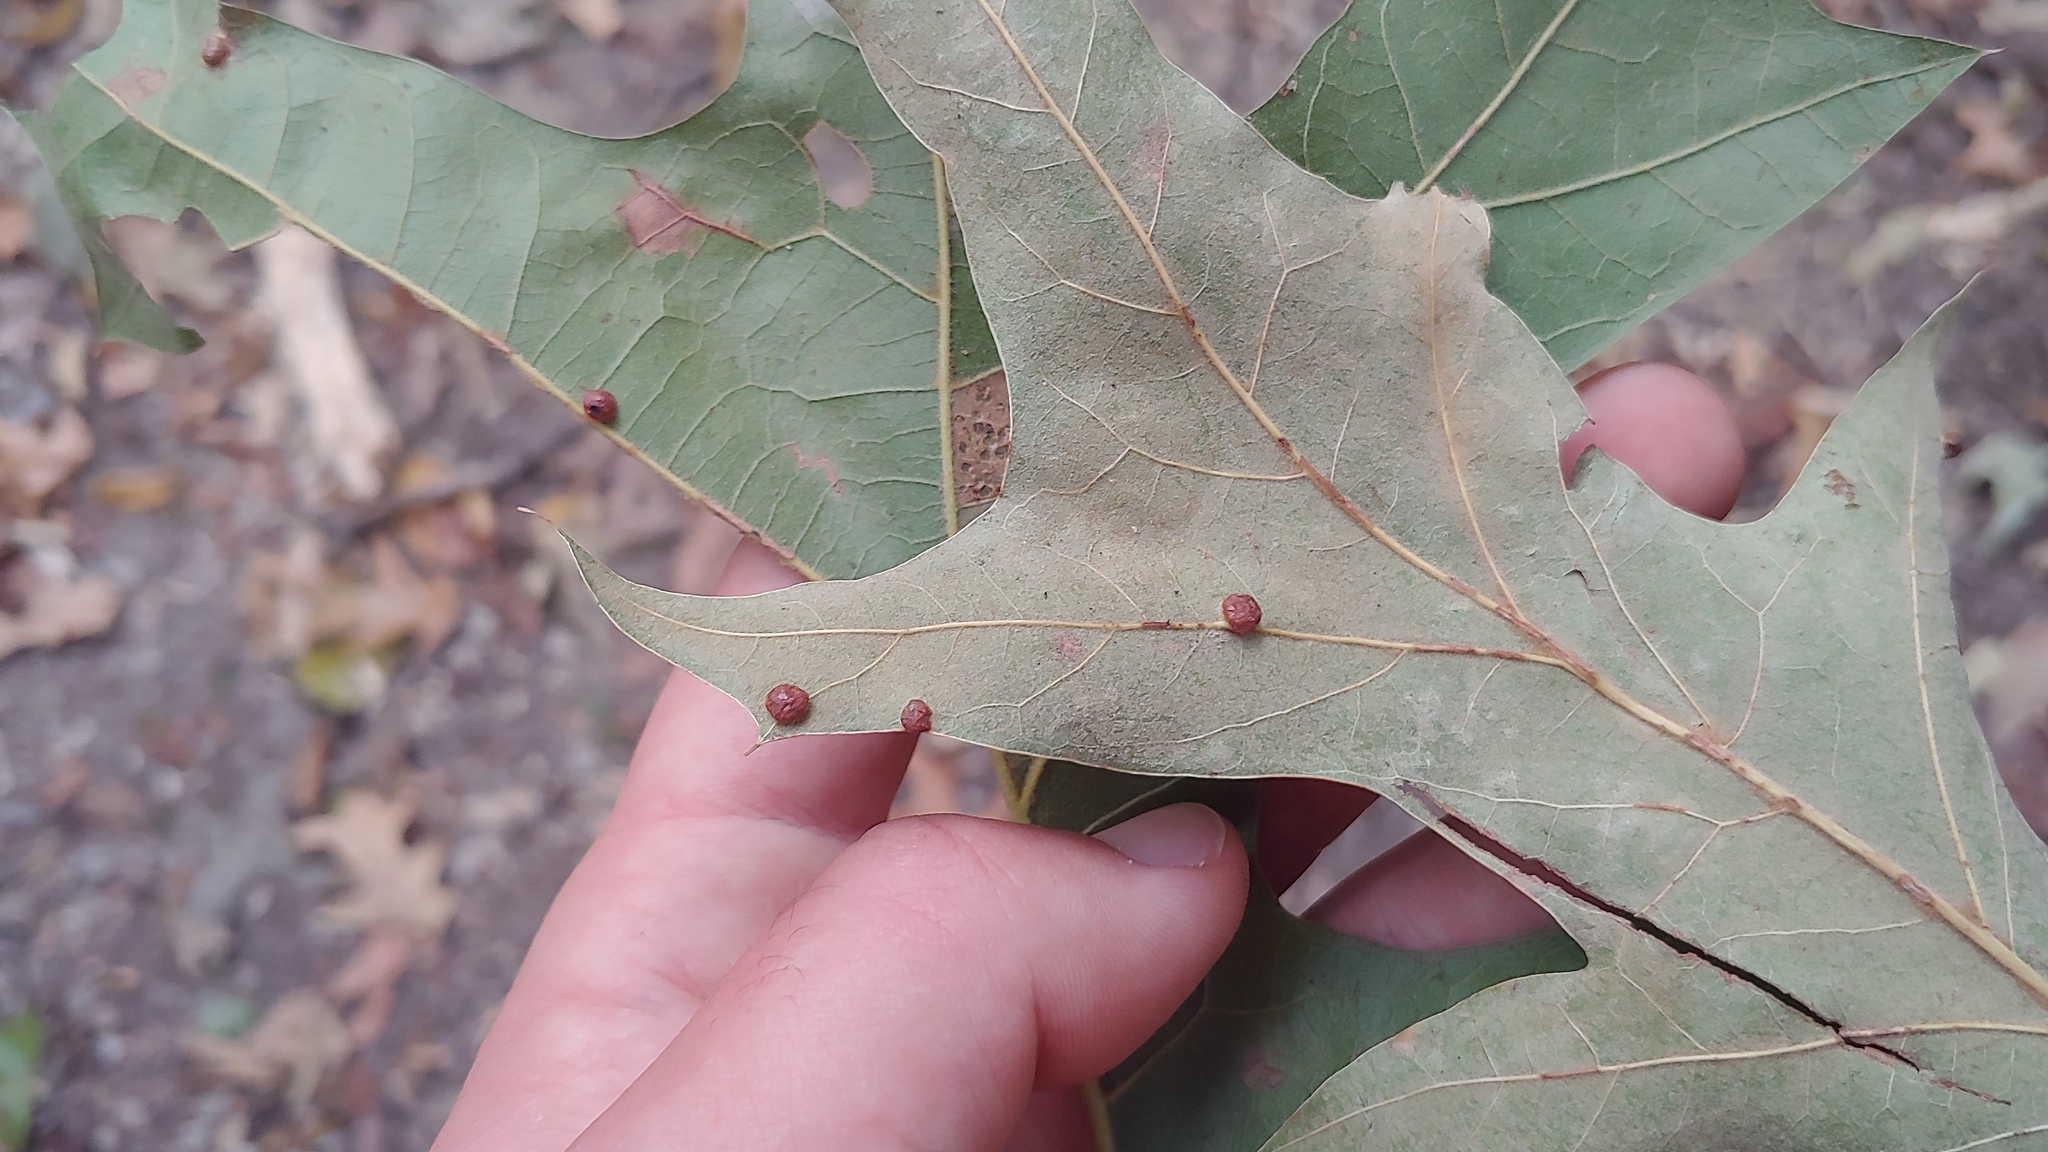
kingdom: Animalia
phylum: Arthropoda
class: Insecta
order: Diptera
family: Cecidomyiidae
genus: Polystepha
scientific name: Polystepha globosa
